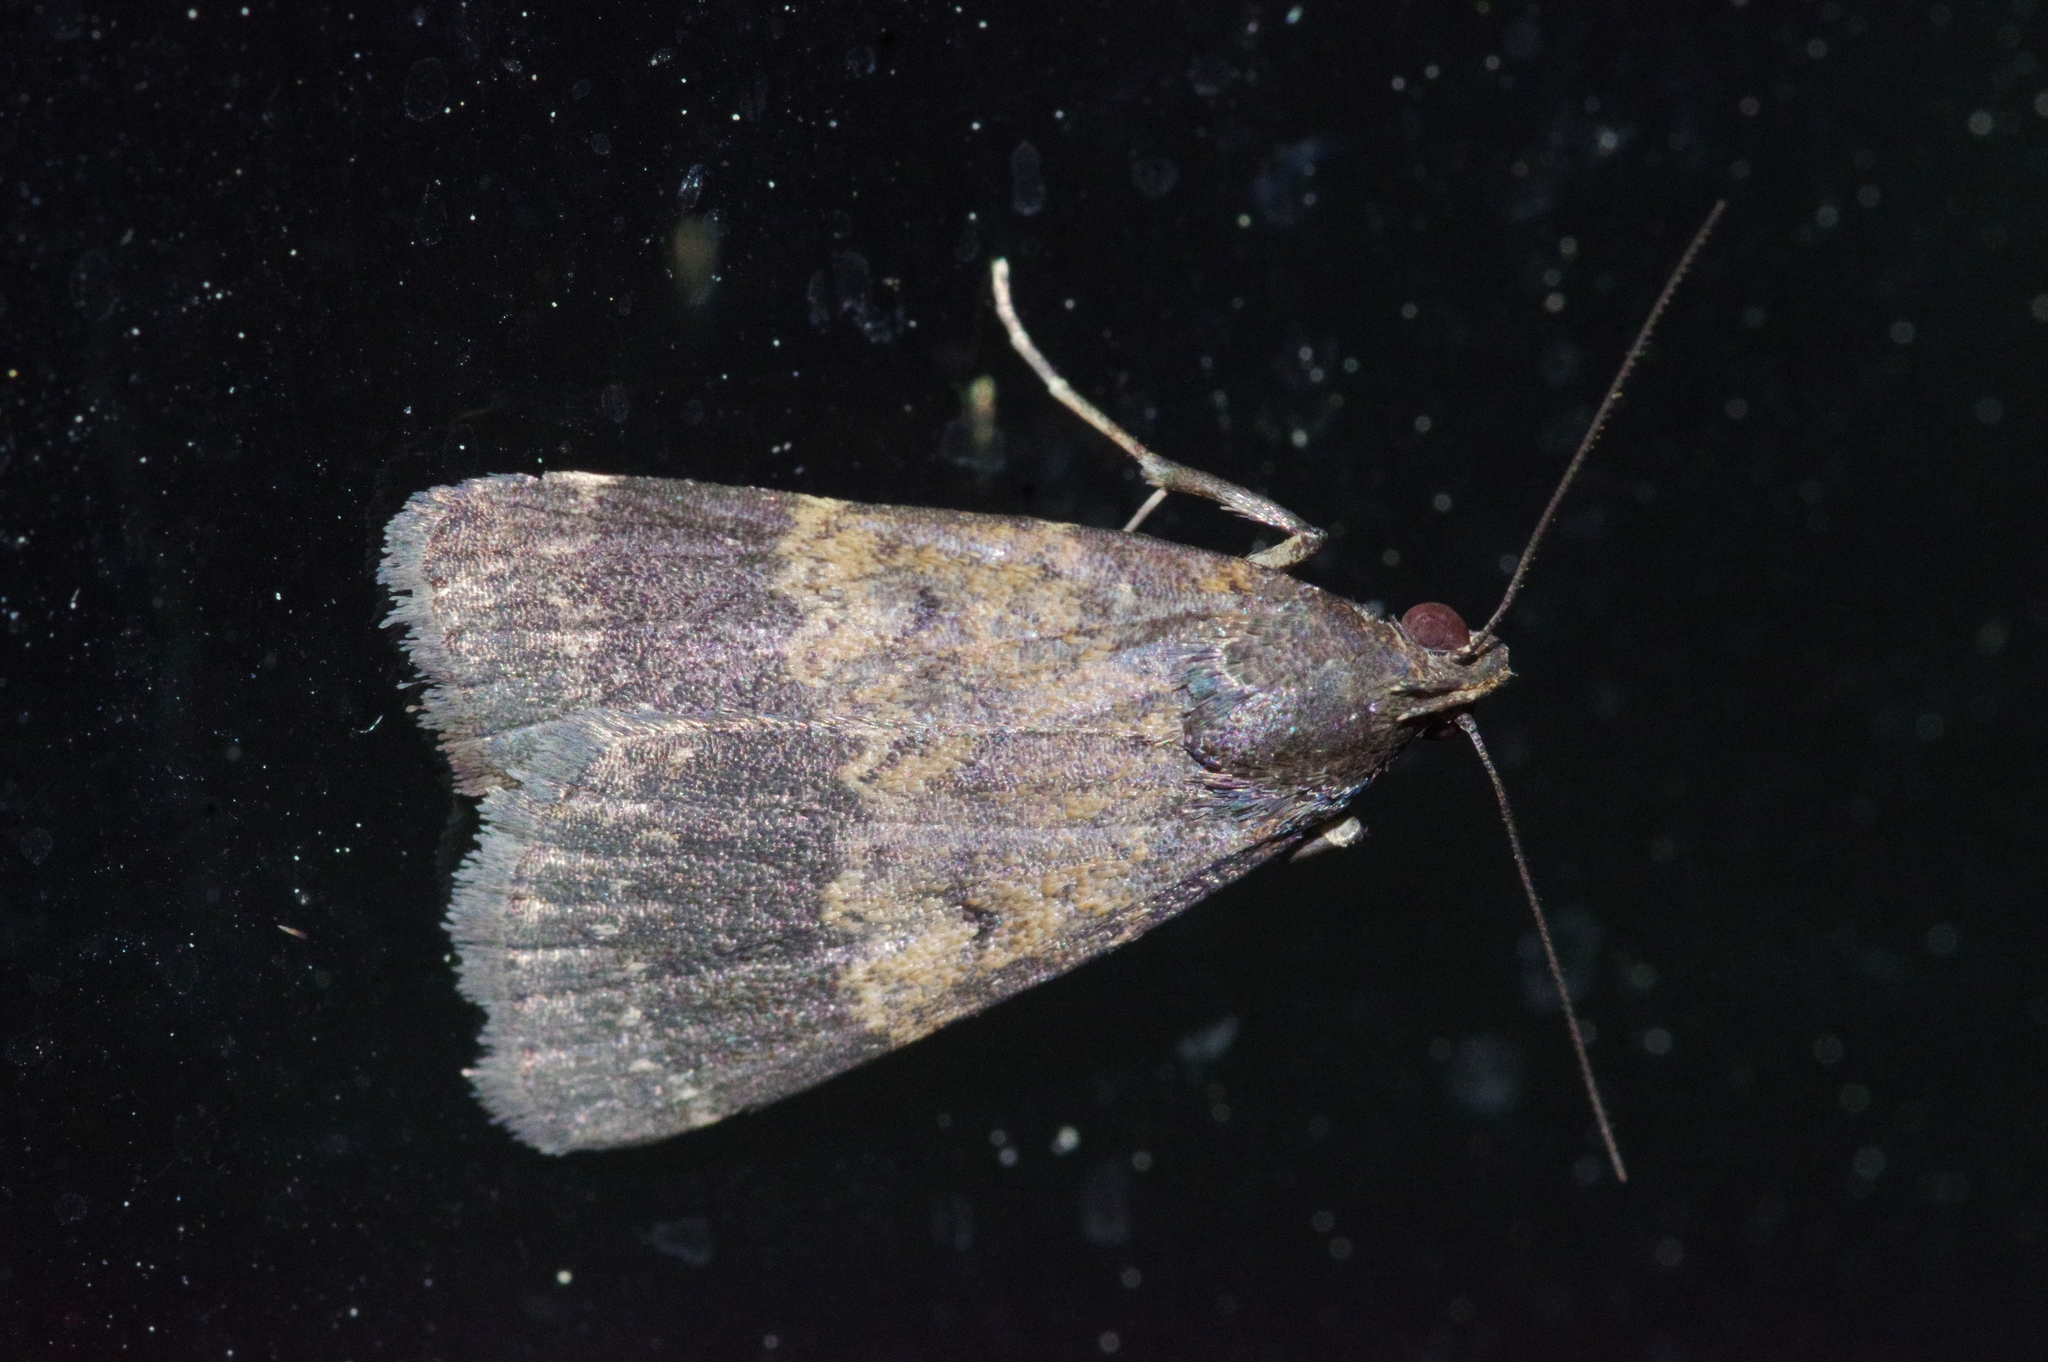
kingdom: Animalia
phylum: Arthropoda
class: Insecta
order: Lepidoptera
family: Erebidae
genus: Hydrillodes
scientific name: Hydrillodes lentalis
